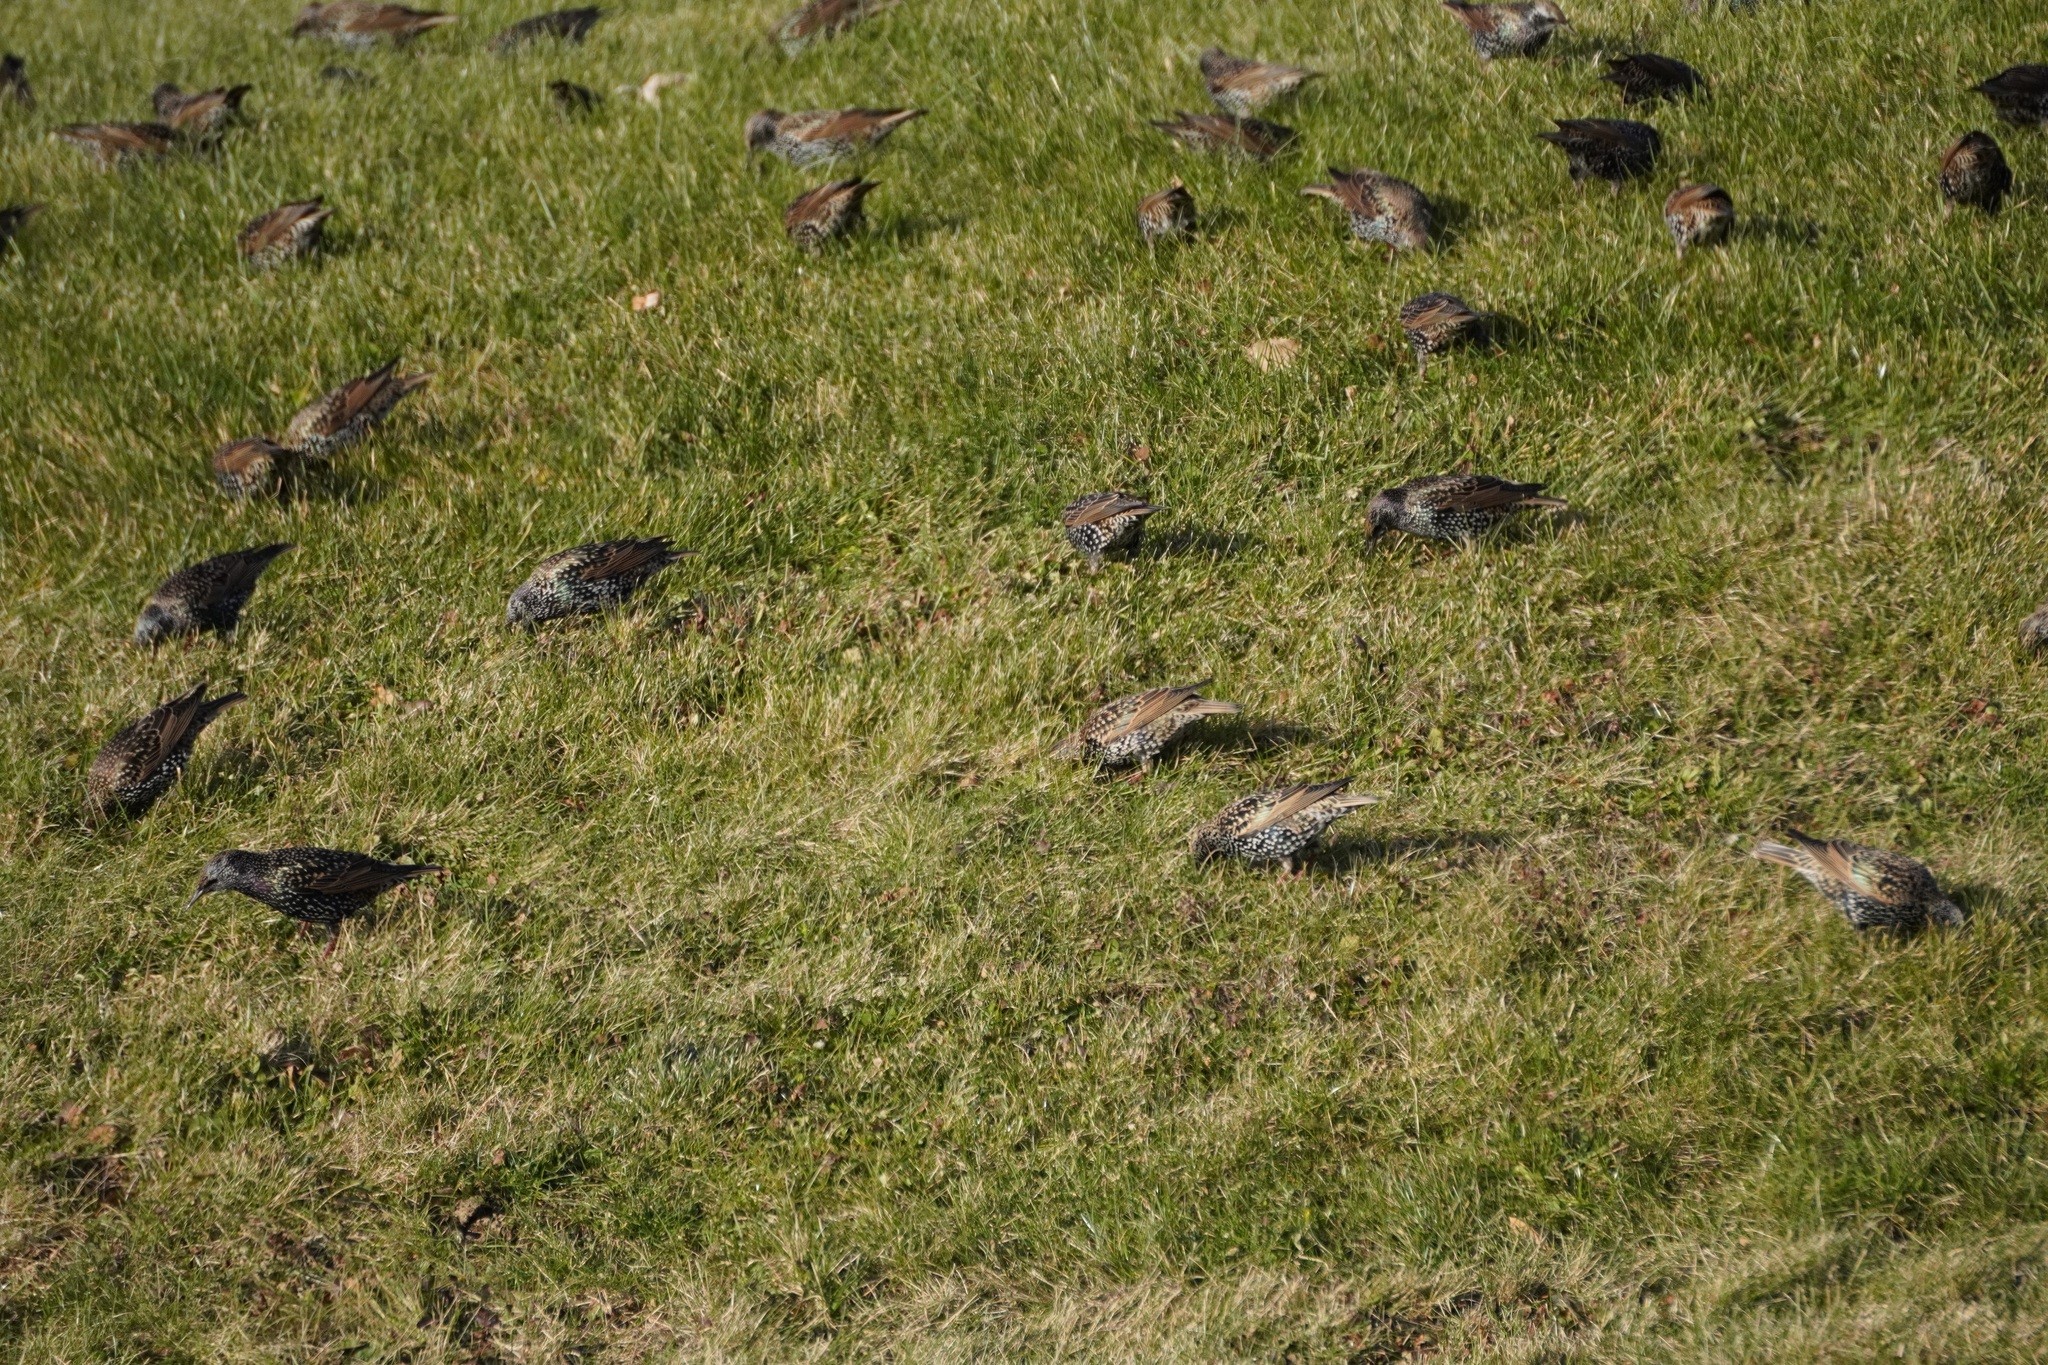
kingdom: Animalia
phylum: Chordata
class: Aves
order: Passeriformes
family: Sturnidae
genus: Sturnus
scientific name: Sturnus vulgaris
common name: Common starling
